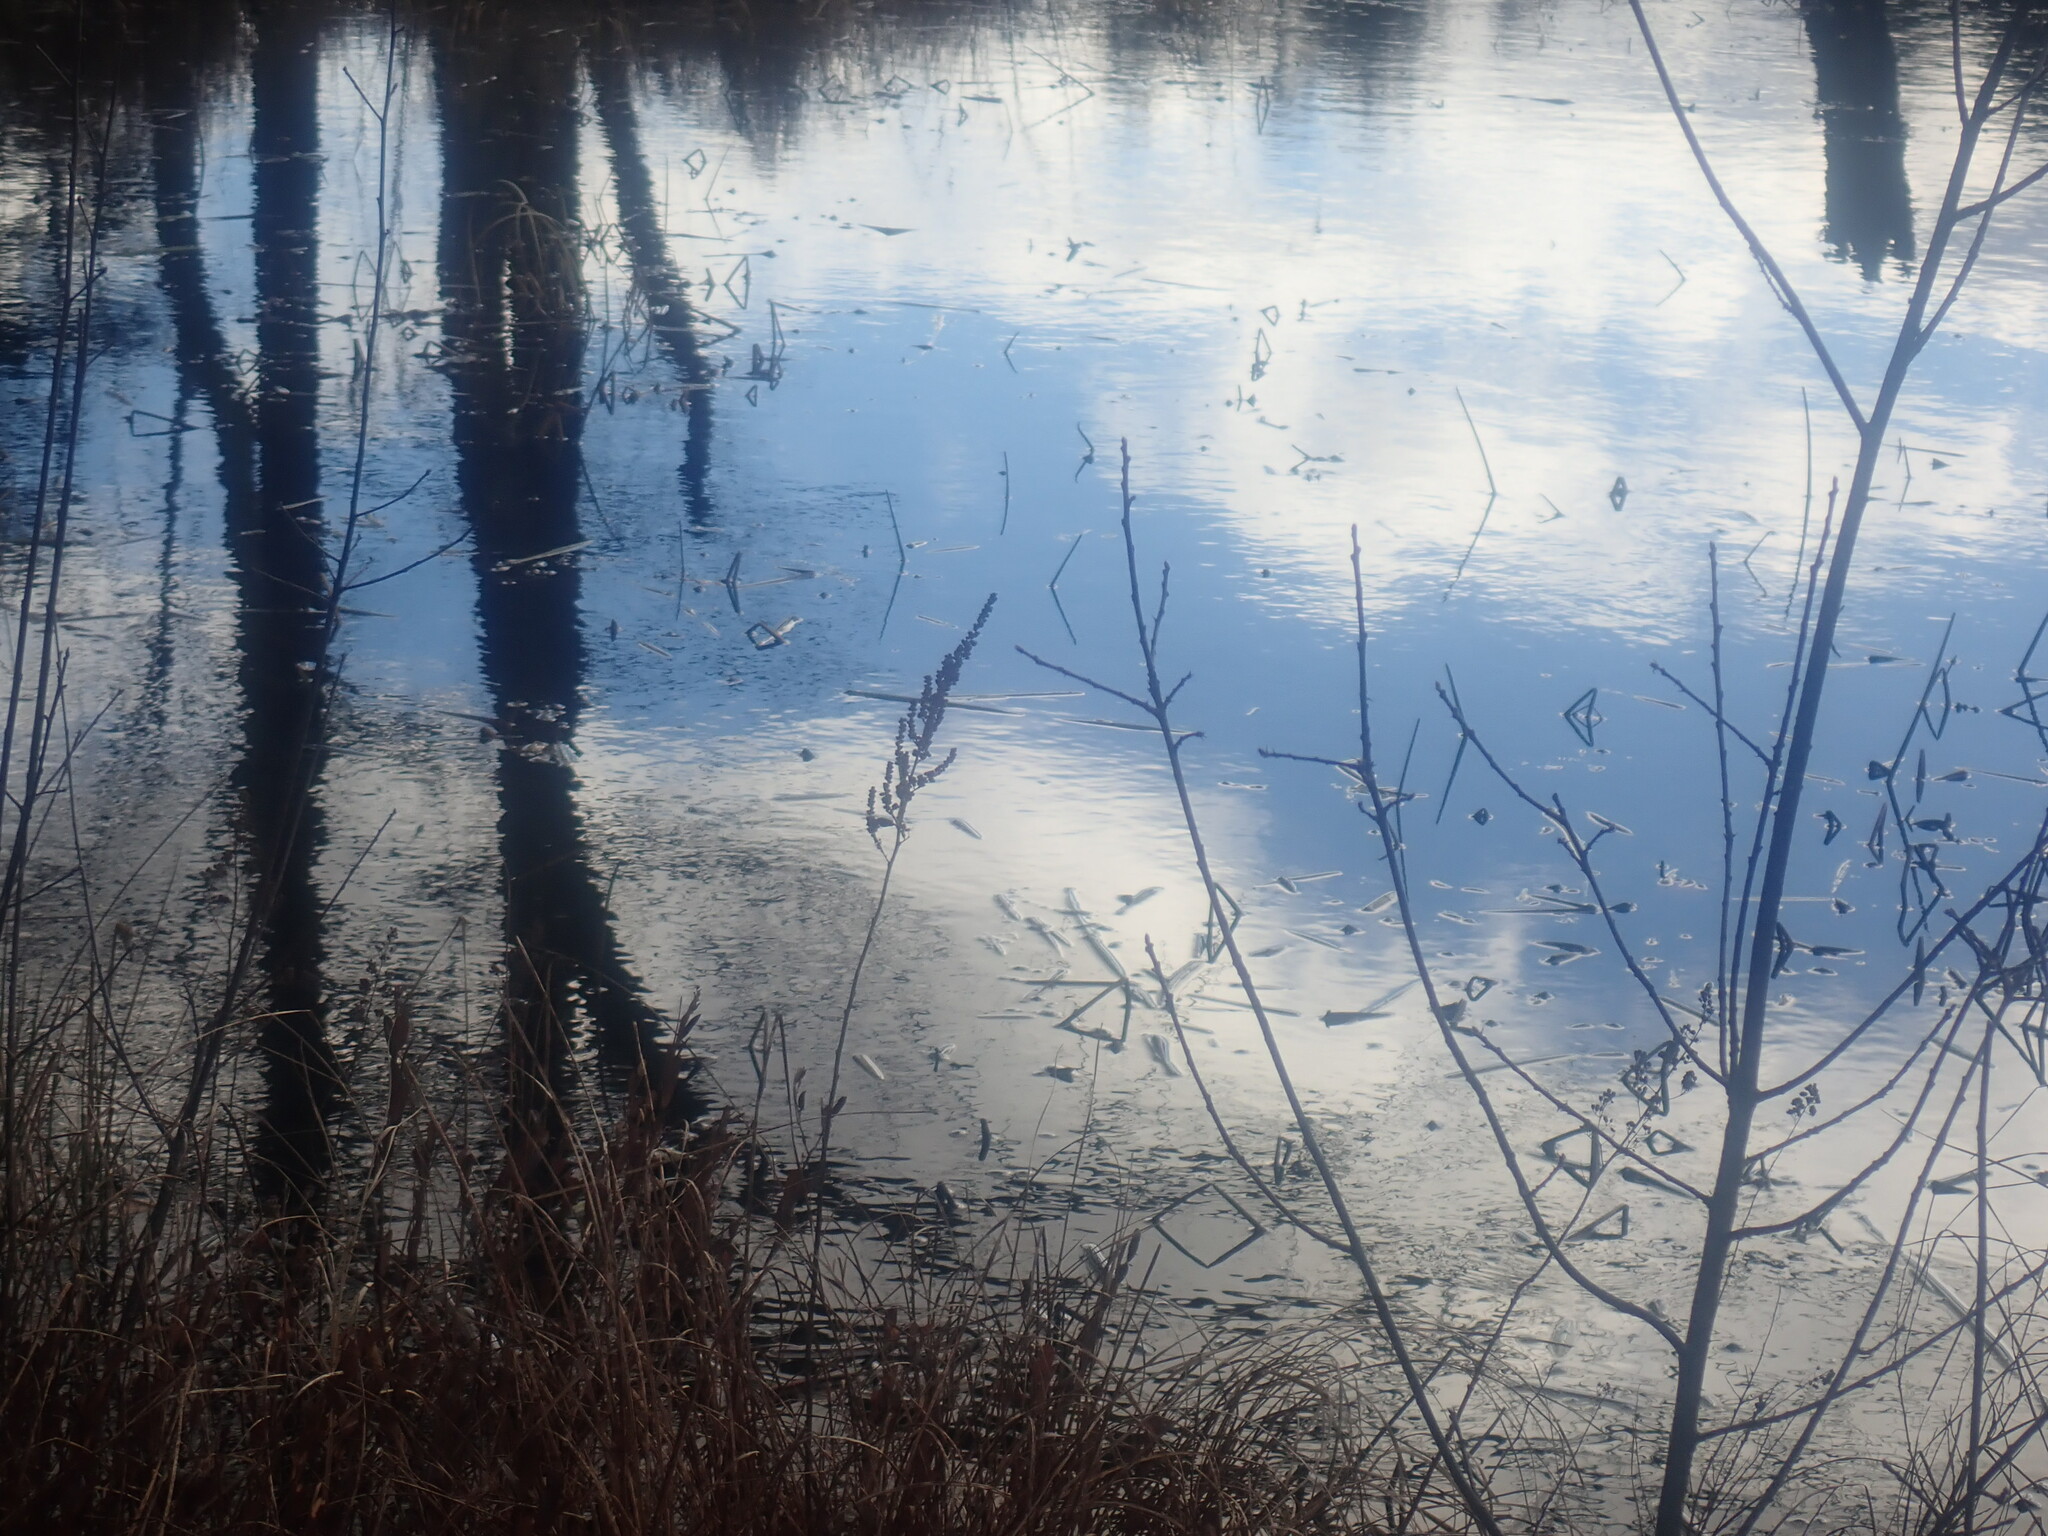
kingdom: Plantae
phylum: Tracheophyta
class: Magnoliopsida
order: Rosales
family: Rosaceae
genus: Spiraea
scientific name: Spiraea tomentosa
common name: Hardhack
